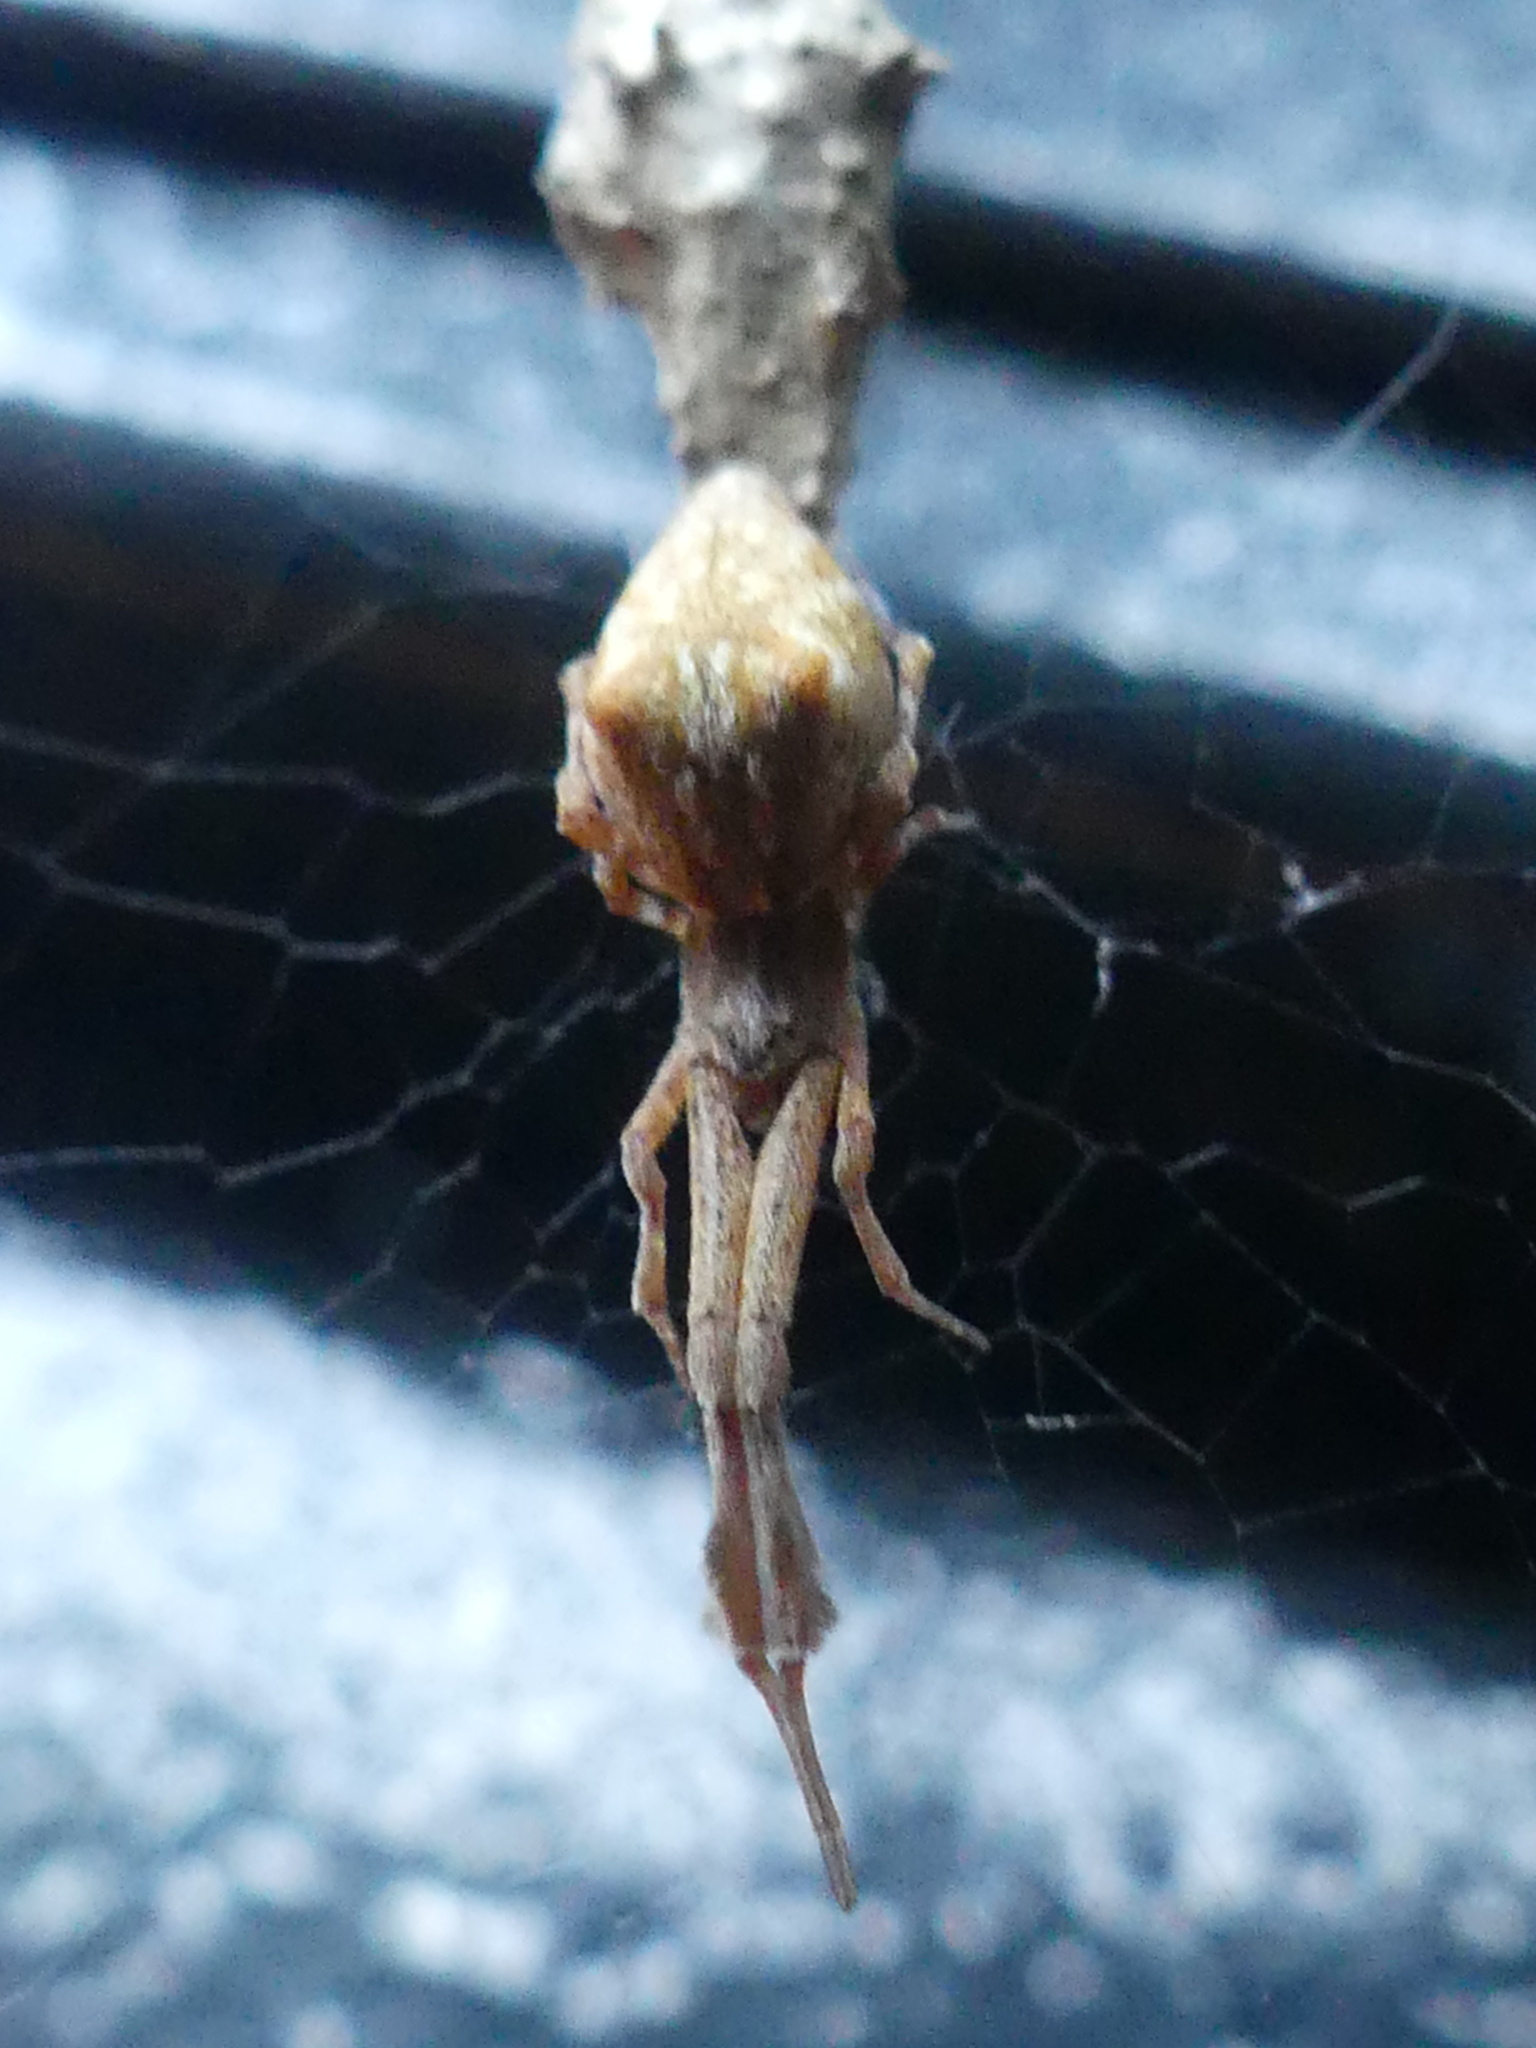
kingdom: Animalia
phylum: Arthropoda
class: Arachnida
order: Araneae
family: Uloboridae
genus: Uloborus
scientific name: Uloborus glomosus
